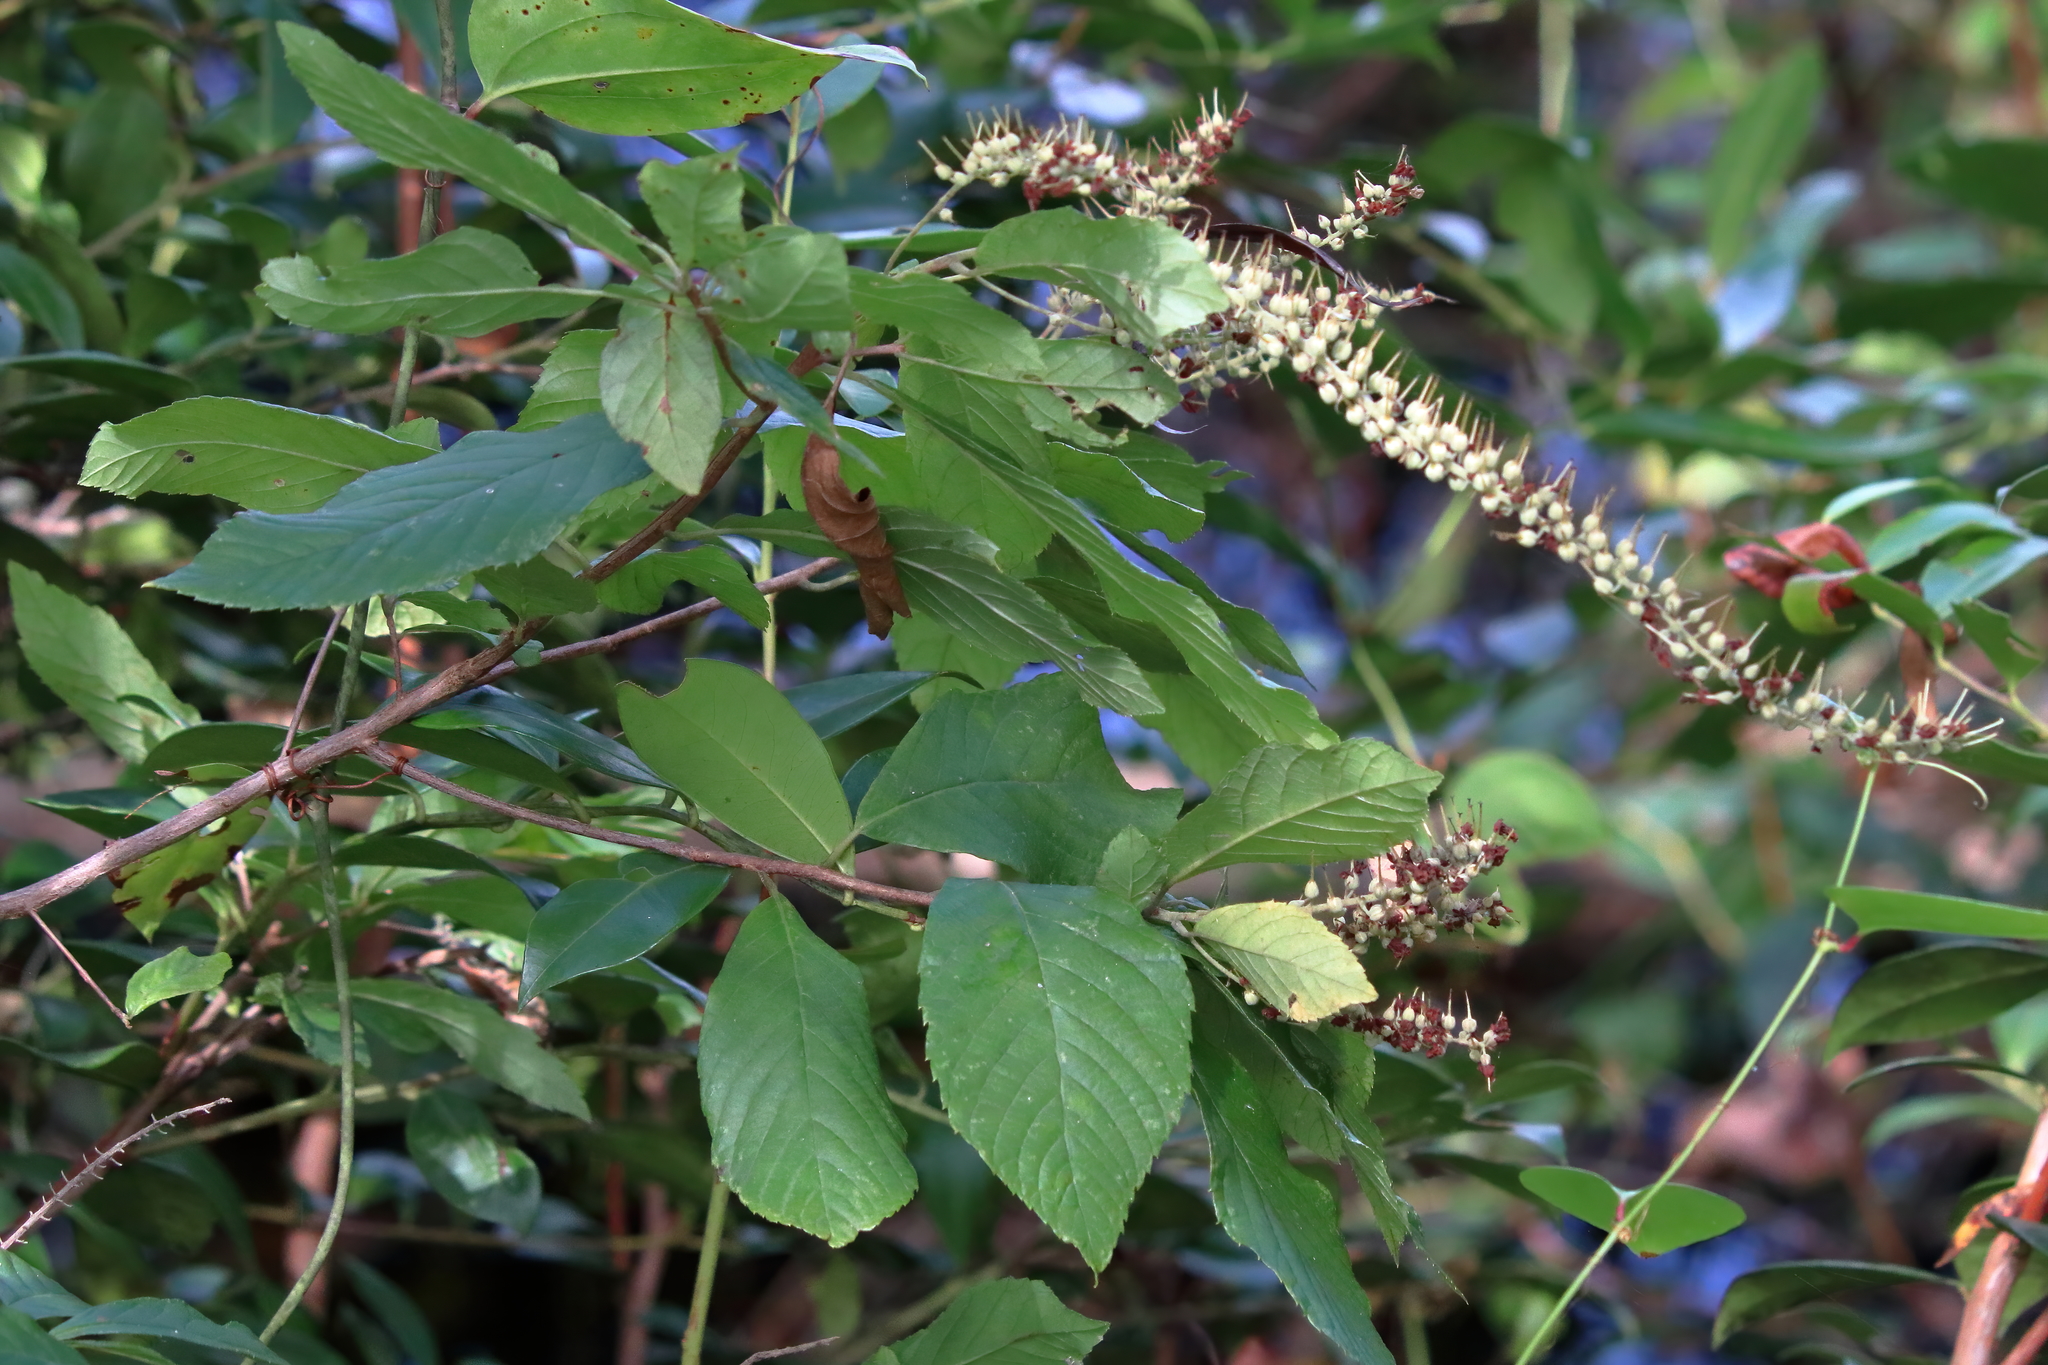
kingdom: Plantae
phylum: Tracheophyta
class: Magnoliopsida
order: Saxifragales
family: Iteaceae
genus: Itea
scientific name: Itea virginica
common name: Sweetspire
